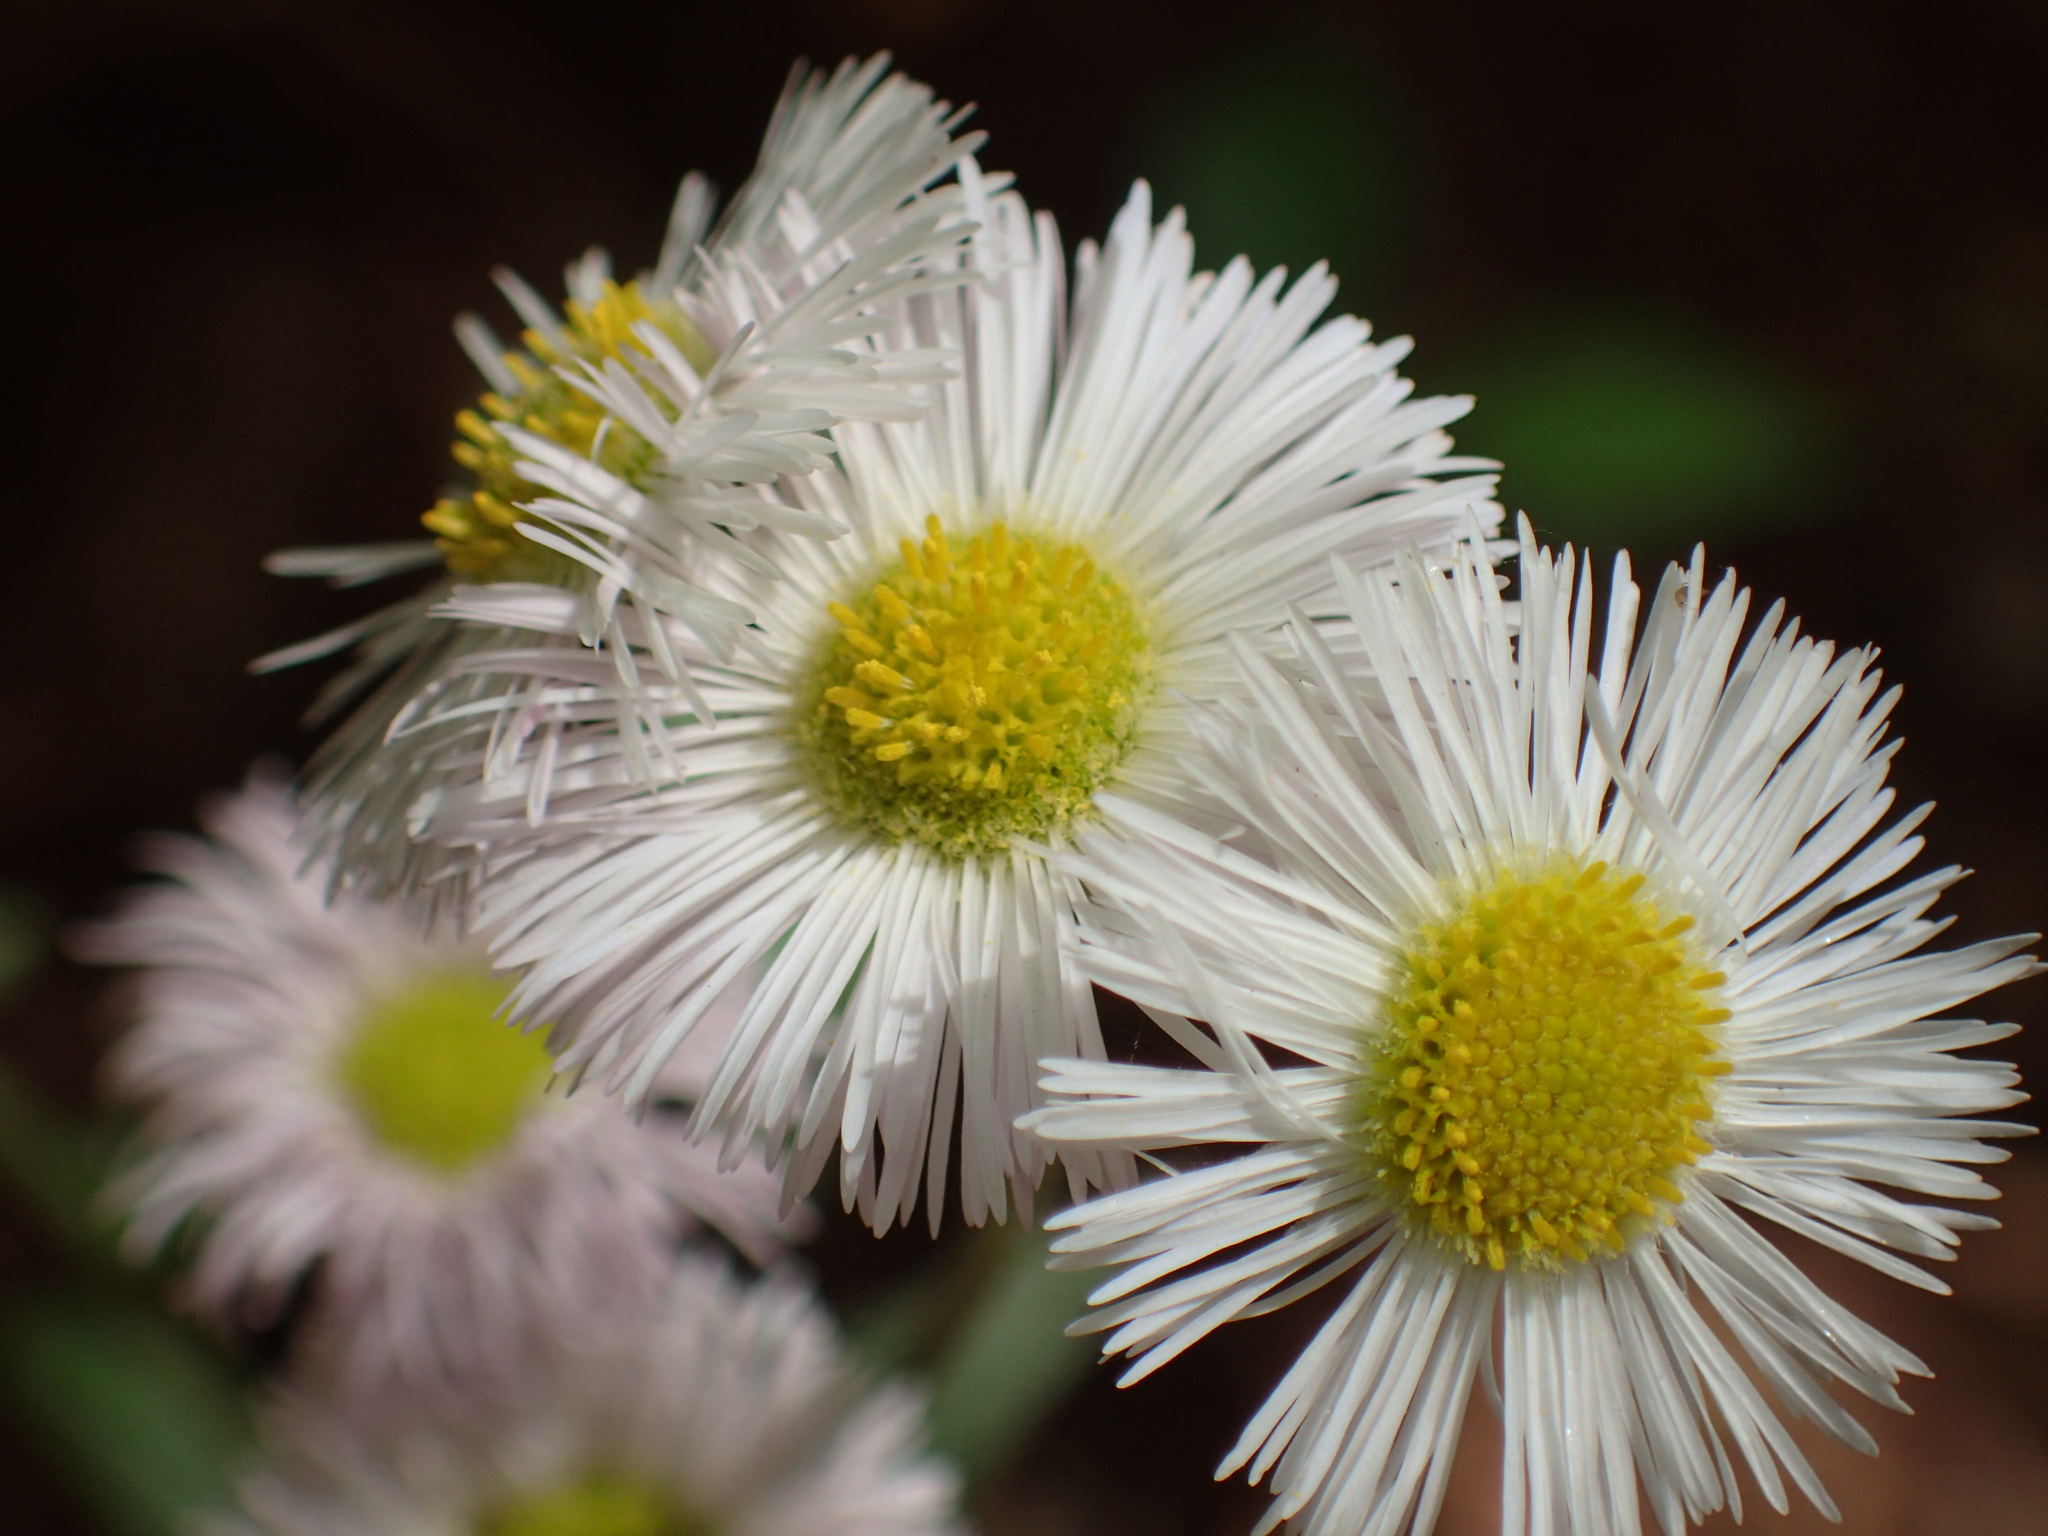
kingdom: Plantae
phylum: Tracheophyta
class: Magnoliopsida
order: Asterales
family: Asteraceae
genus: Erigeron
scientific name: Erigeron philadelphicus
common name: Robin's-plantain
